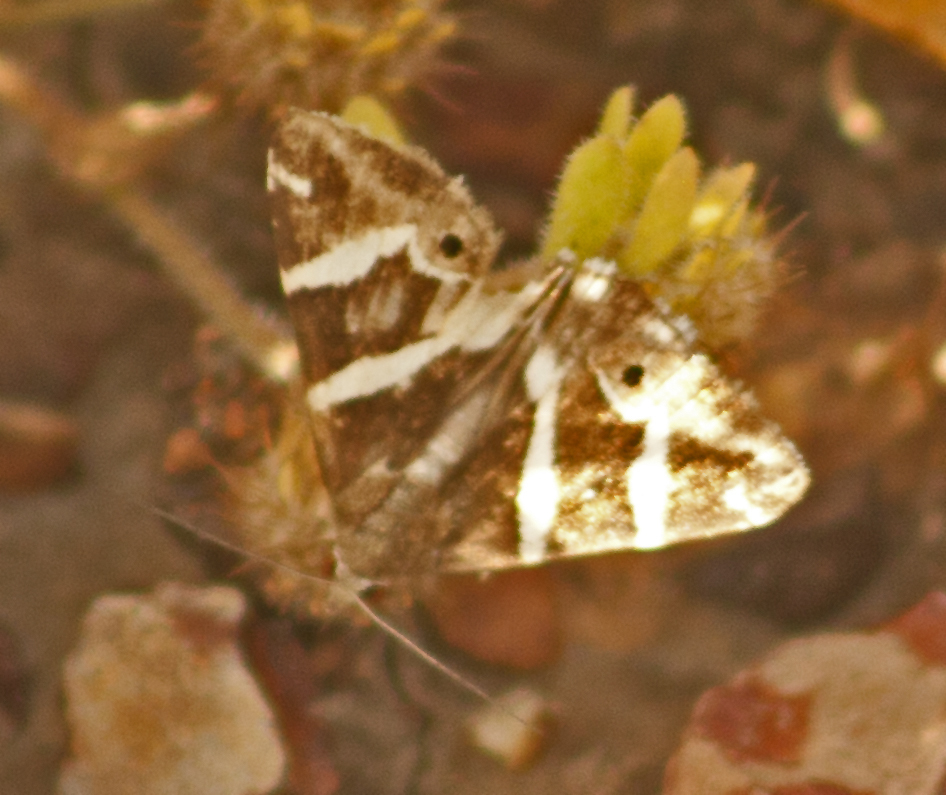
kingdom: Animalia
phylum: Arthropoda
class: Insecta
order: Lepidoptera
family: Erebidae
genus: Grammodes
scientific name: Grammodes pulcherrima
